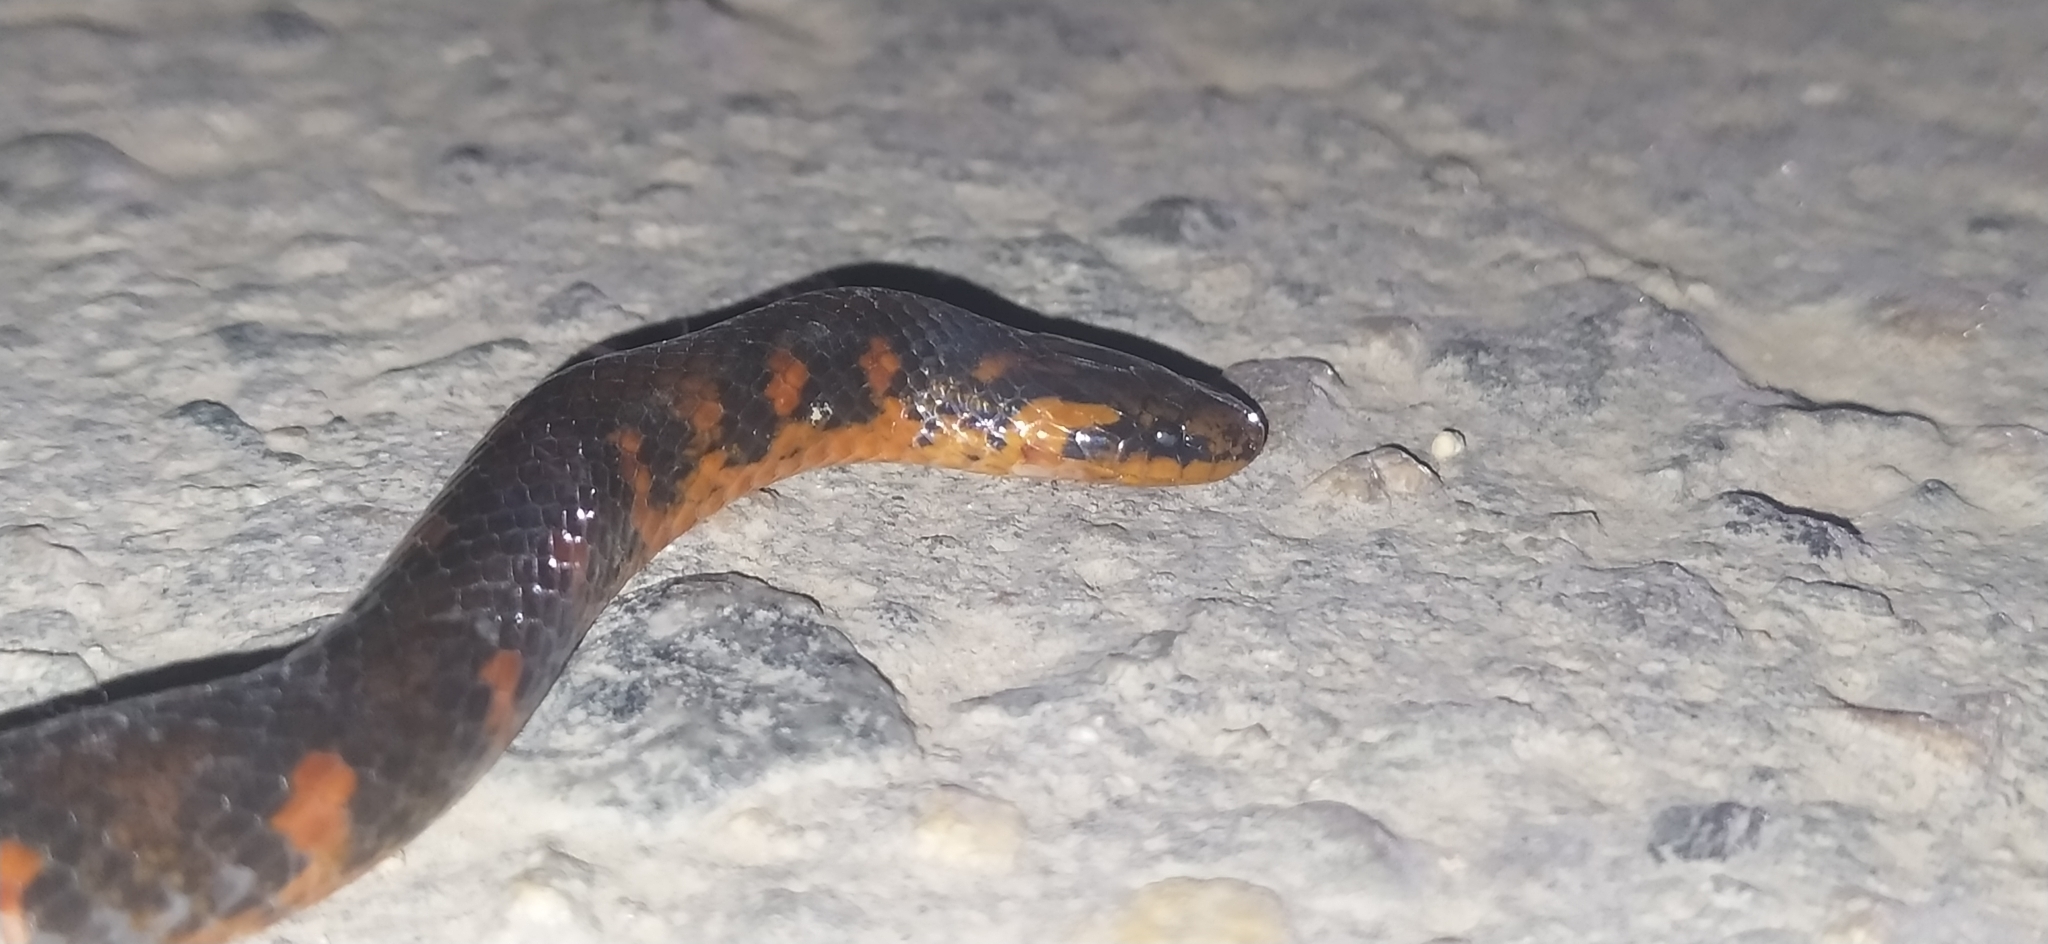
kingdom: Animalia
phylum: Chordata
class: Squamata
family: Colubridae
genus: Atractus
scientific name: Atractus crassicaudatus
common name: Thickhead ground snake
